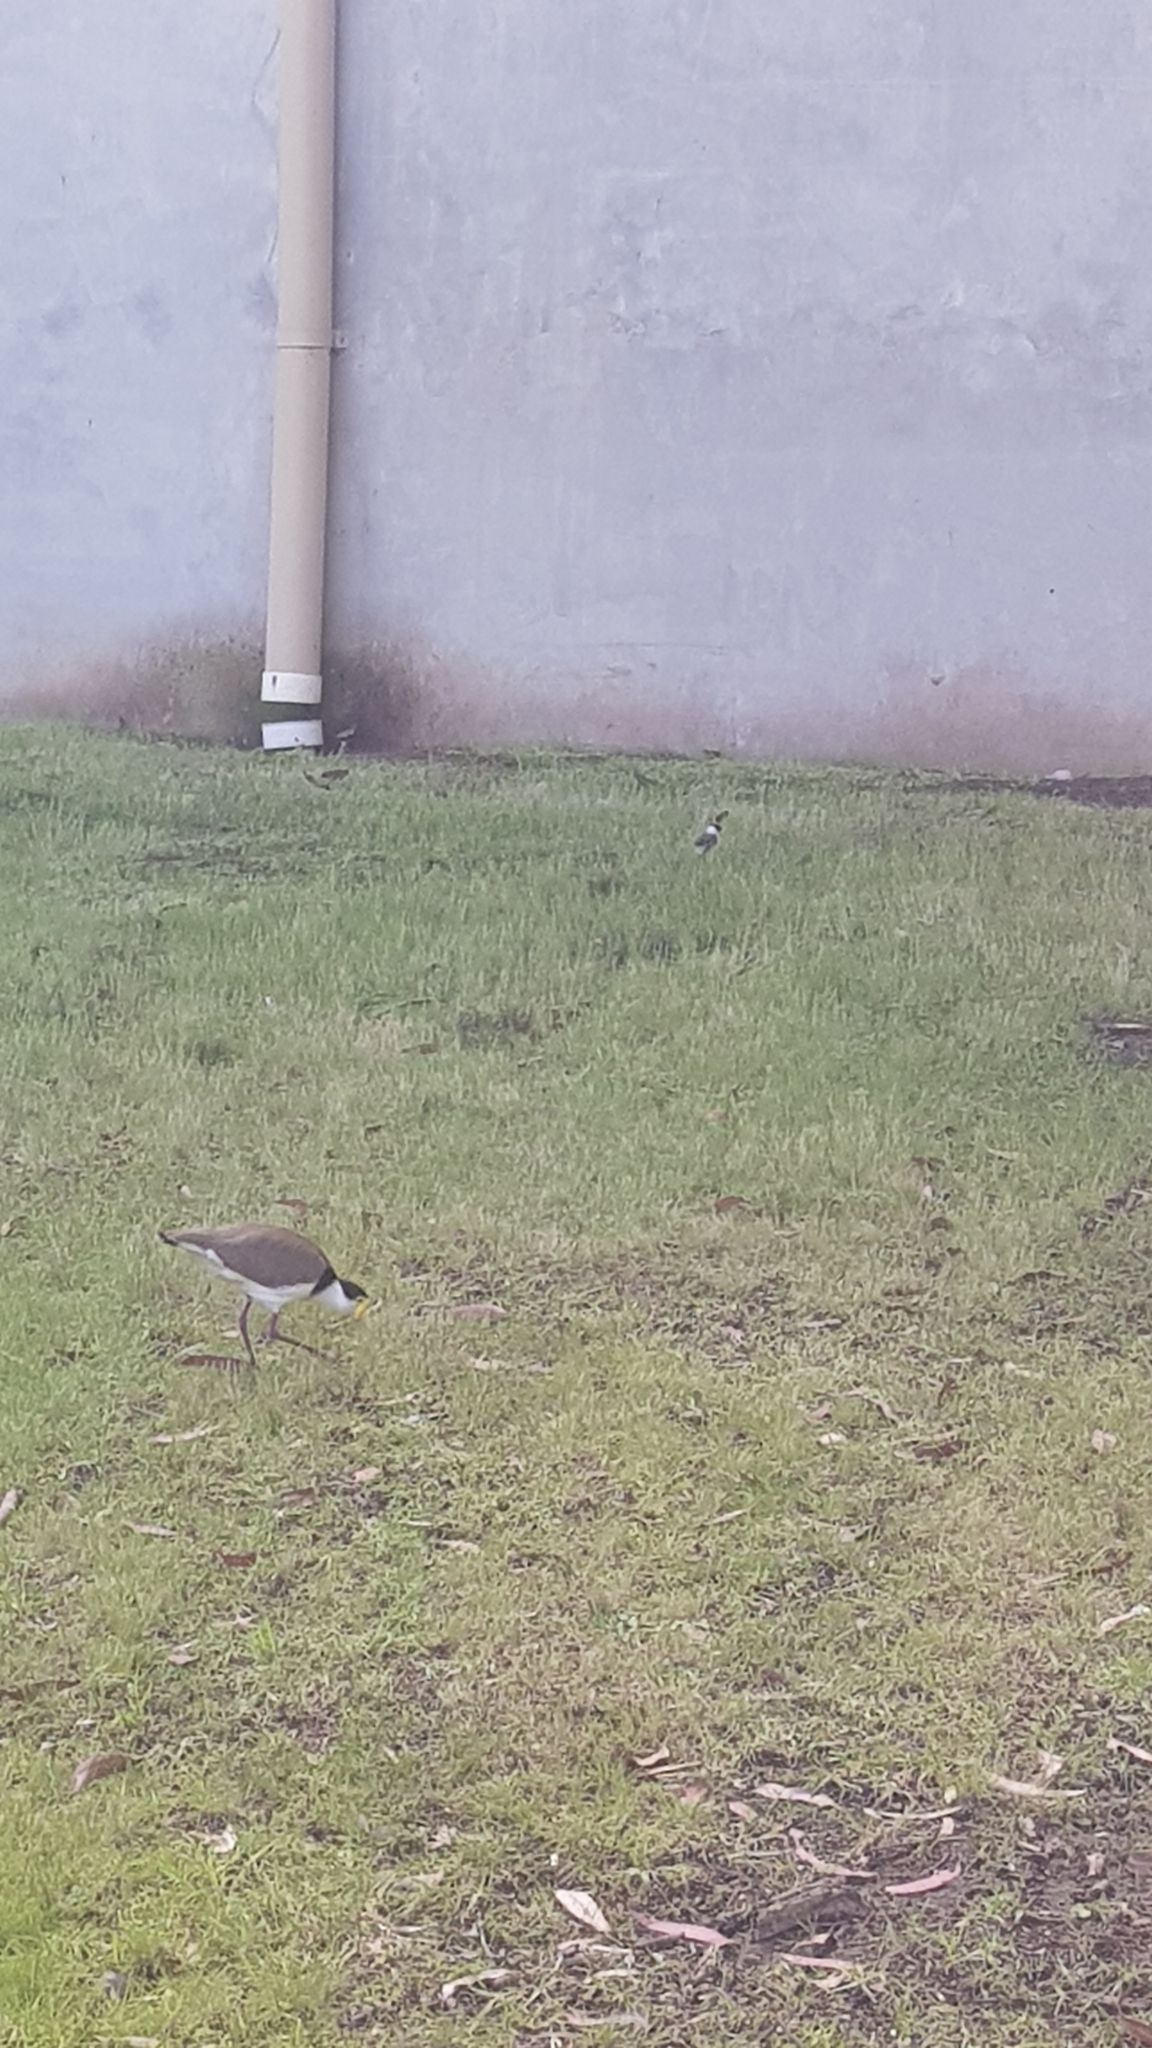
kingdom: Animalia
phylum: Chordata
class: Aves
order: Charadriiformes
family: Charadriidae
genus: Vanellus
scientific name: Vanellus miles
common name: Masked lapwing
